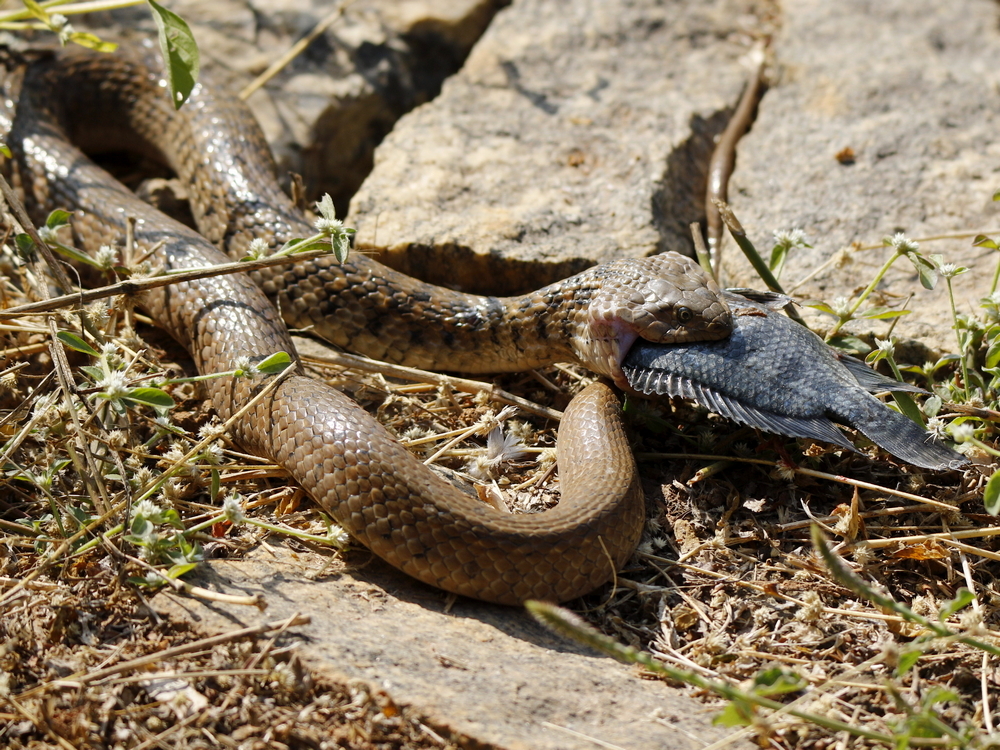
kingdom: Animalia
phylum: Chordata
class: Squamata
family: Colubridae
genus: Fowlea
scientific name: Fowlea piscator
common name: Asiatic water snake
